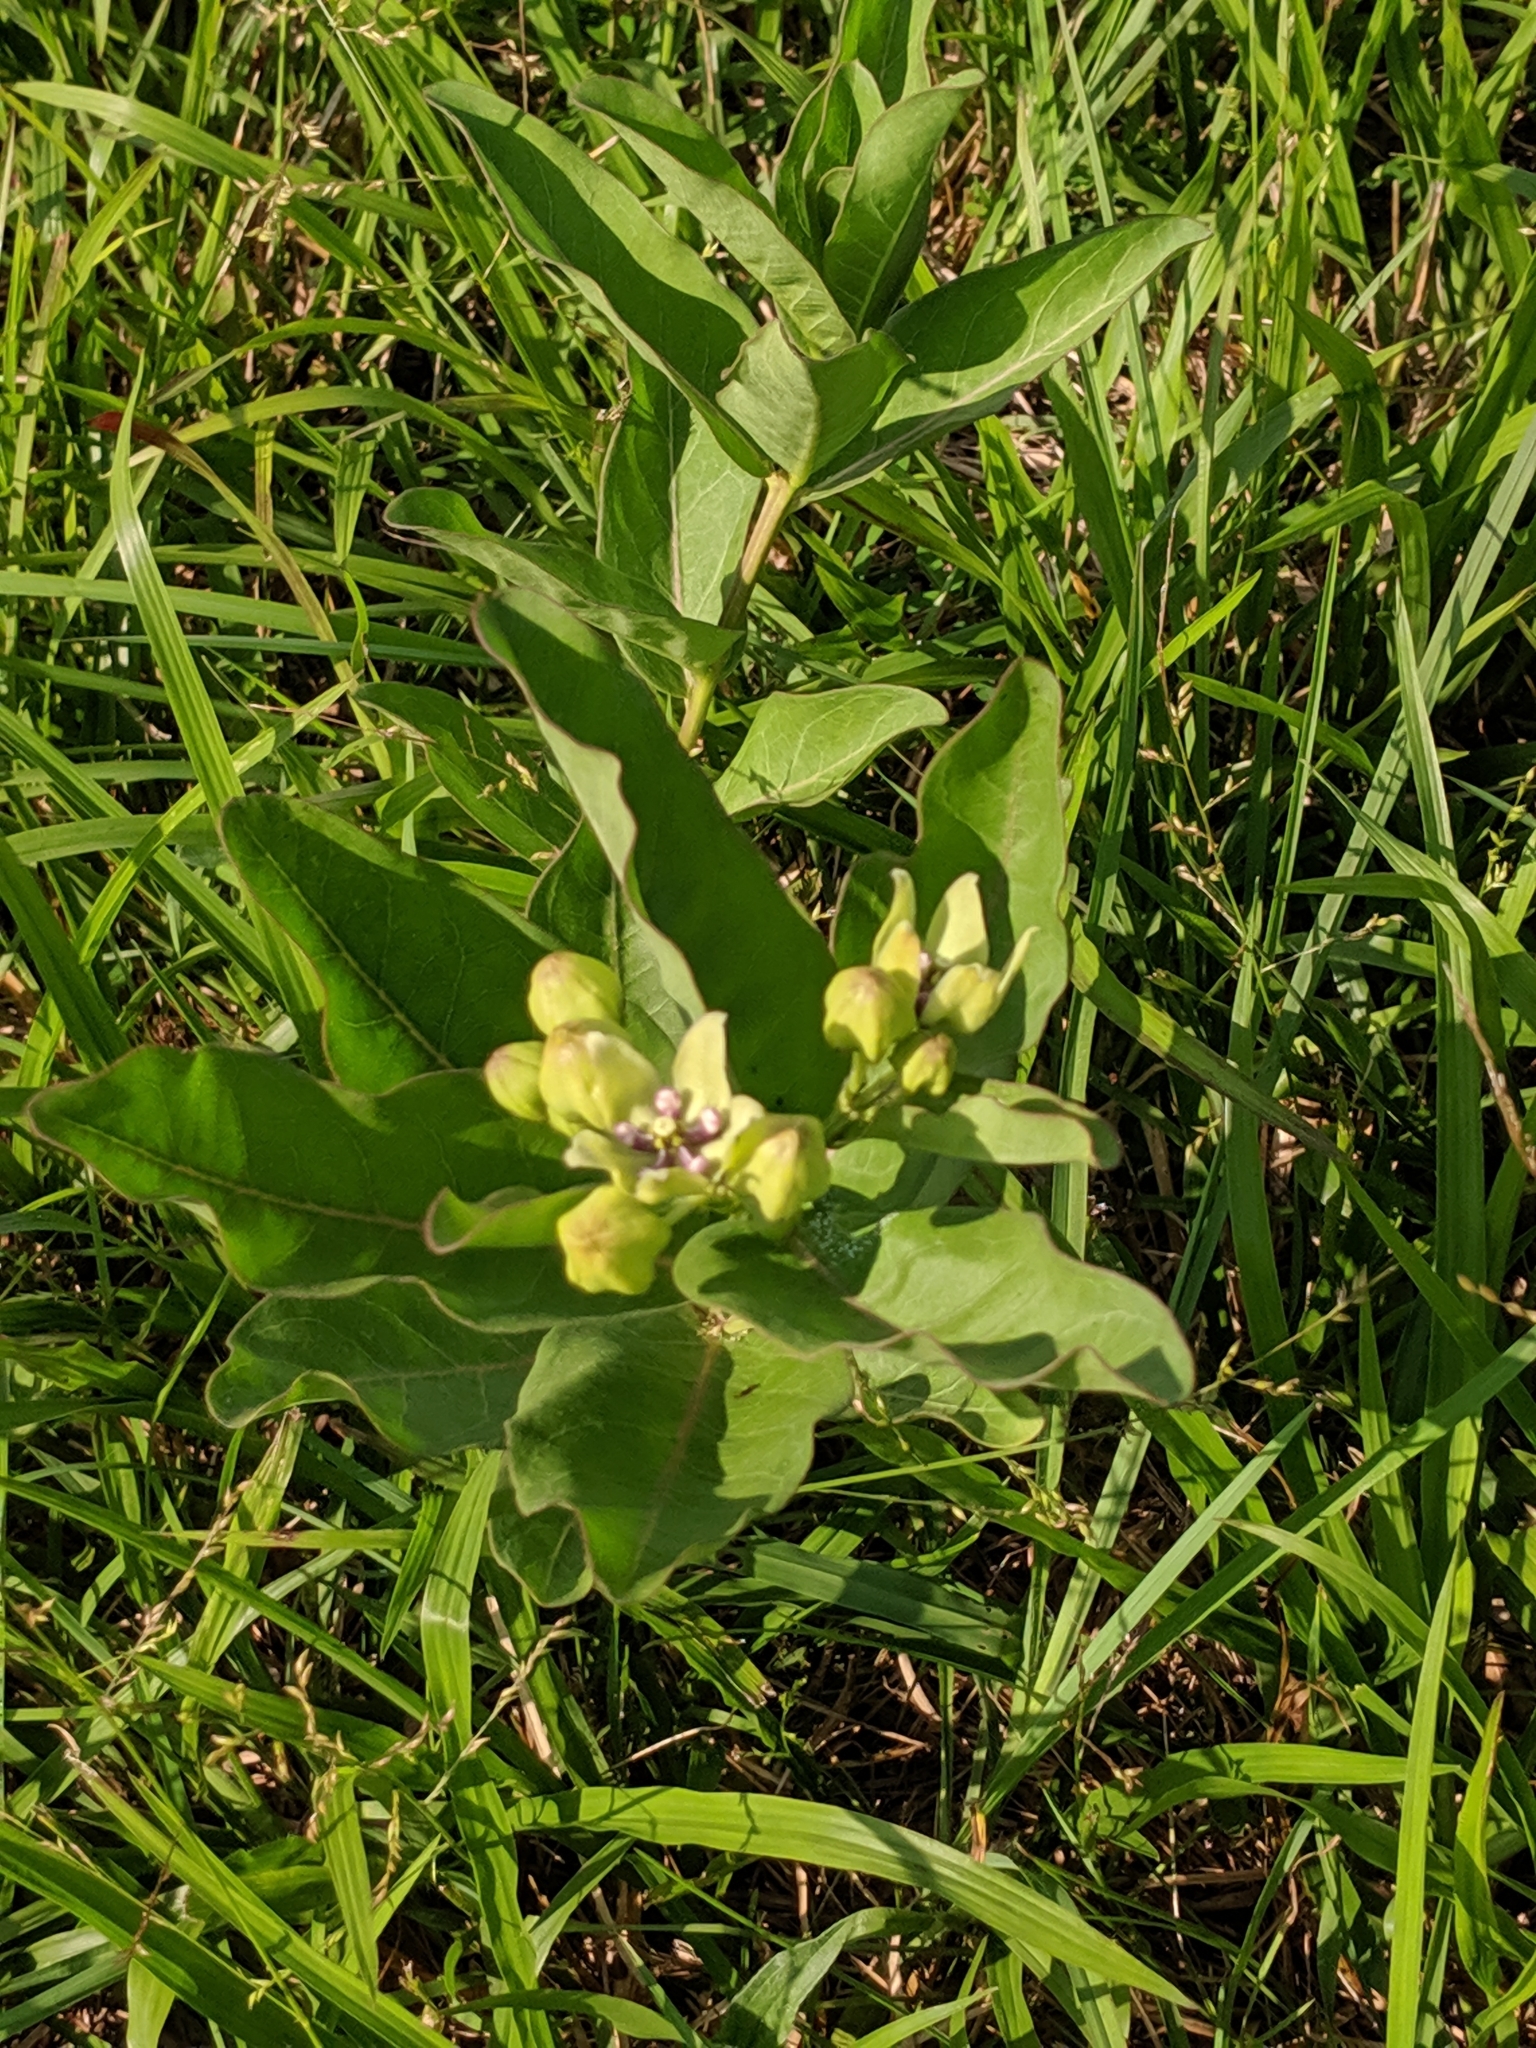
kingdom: Plantae
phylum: Tracheophyta
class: Magnoliopsida
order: Gentianales
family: Apocynaceae
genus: Asclepias
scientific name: Asclepias viridis
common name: Antelope-horns
